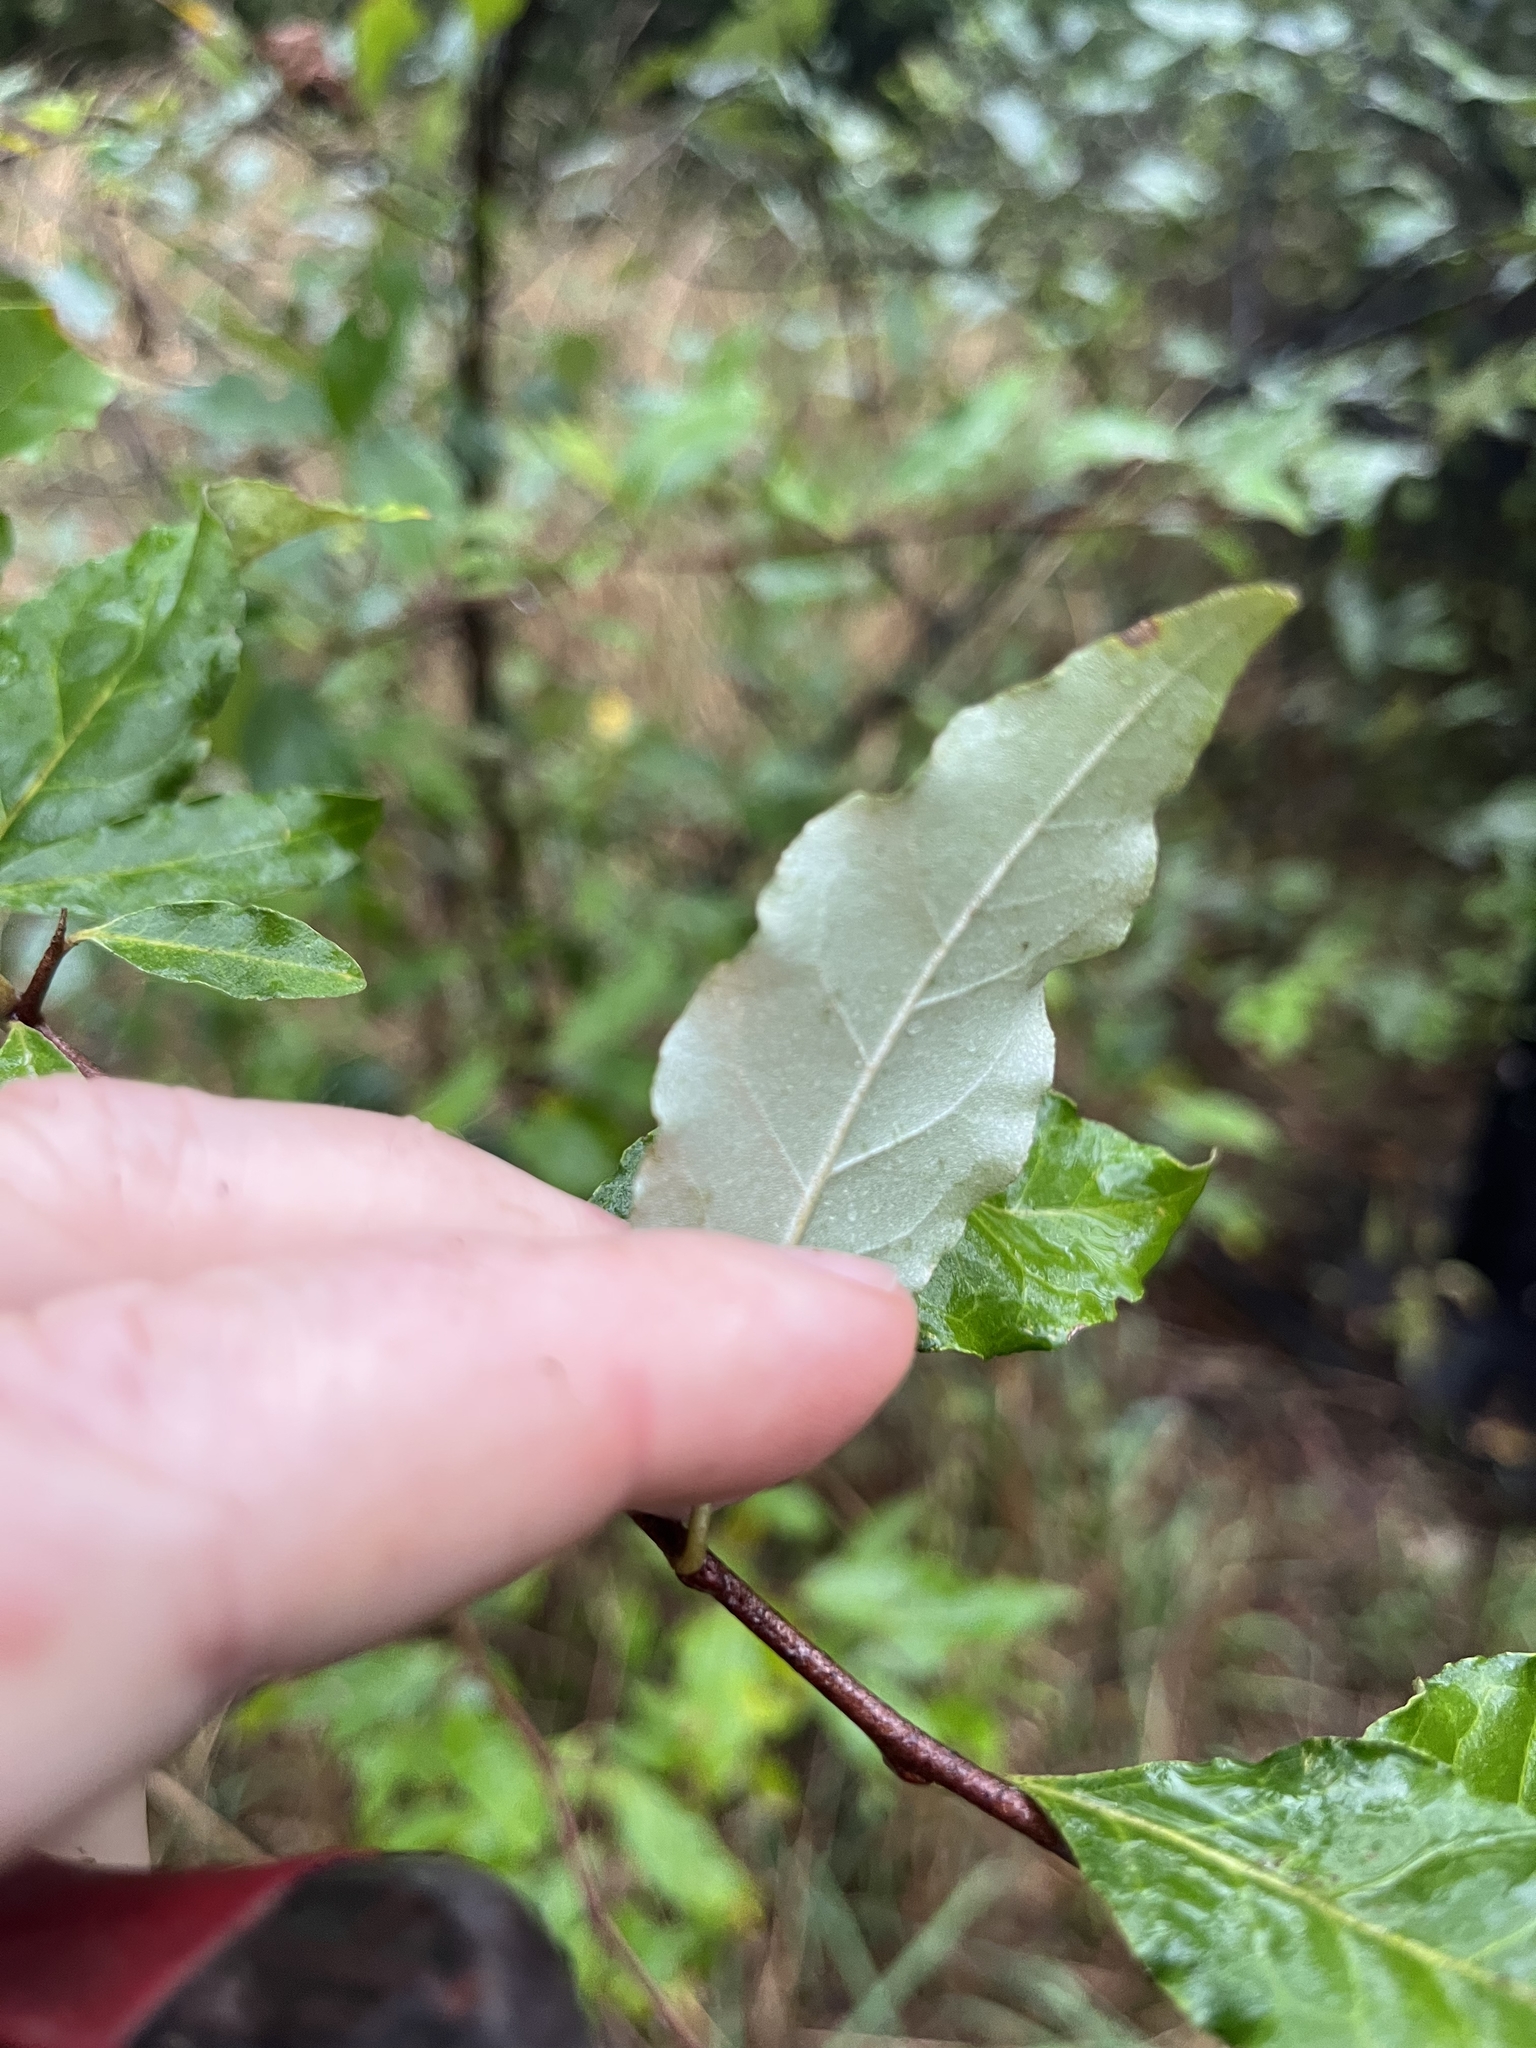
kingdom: Plantae
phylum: Tracheophyta
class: Magnoliopsida
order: Rosales
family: Elaeagnaceae
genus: Elaeagnus
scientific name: Elaeagnus umbellata
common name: Autumn olive
